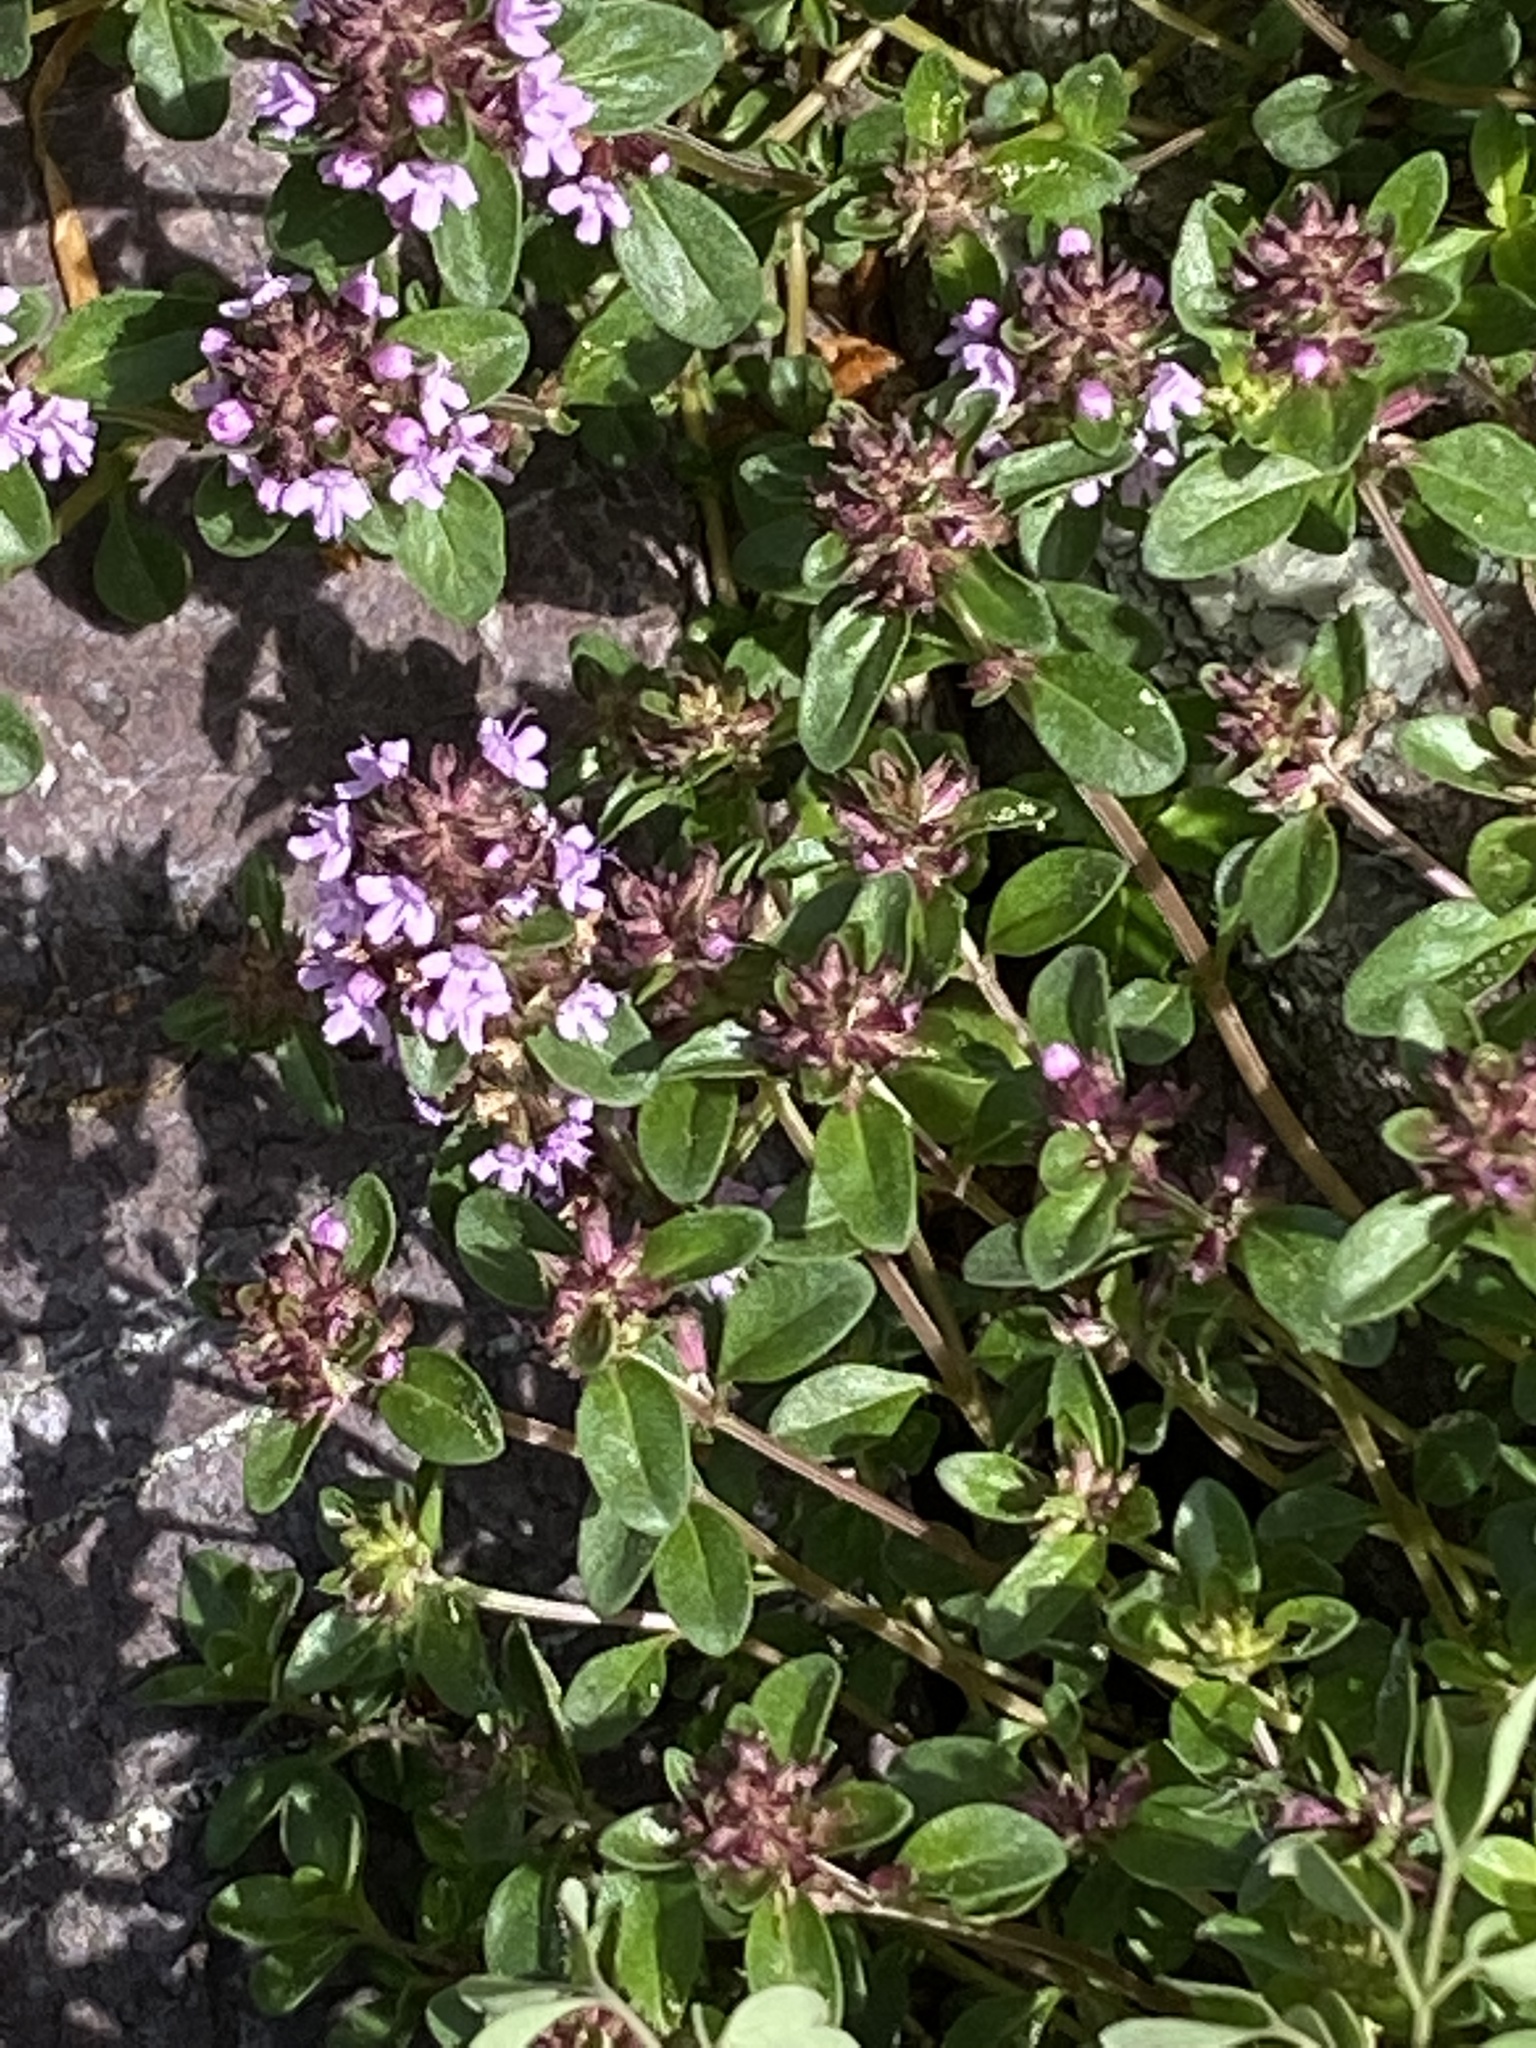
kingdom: Plantae
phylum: Tracheophyta
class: Magnoliopsida
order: Lamiales
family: Lamiaceae
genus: Thymus
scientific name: Thymus pulegioides
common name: Large thyme
